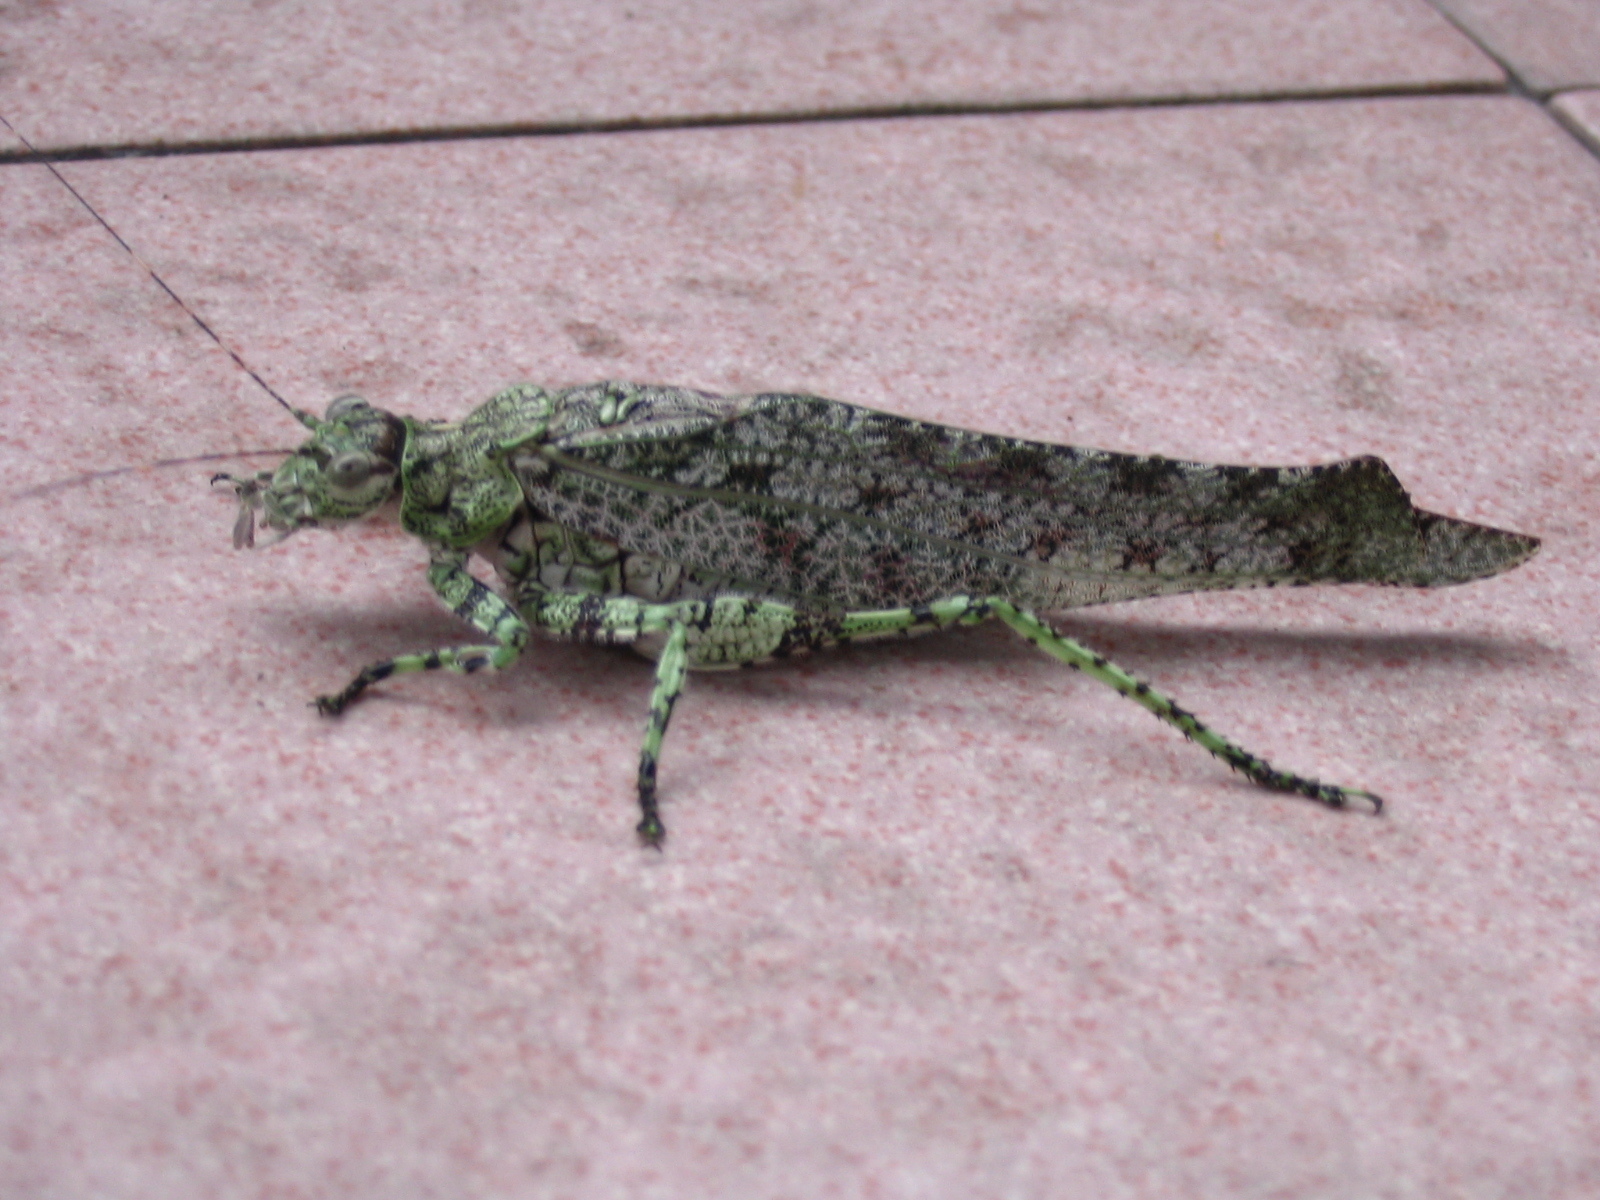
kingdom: Animalia
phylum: Arthropoda
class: Insecta
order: Orthoptera
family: Tettigoniidae
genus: Zulpha
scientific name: Zulpha perlaria
